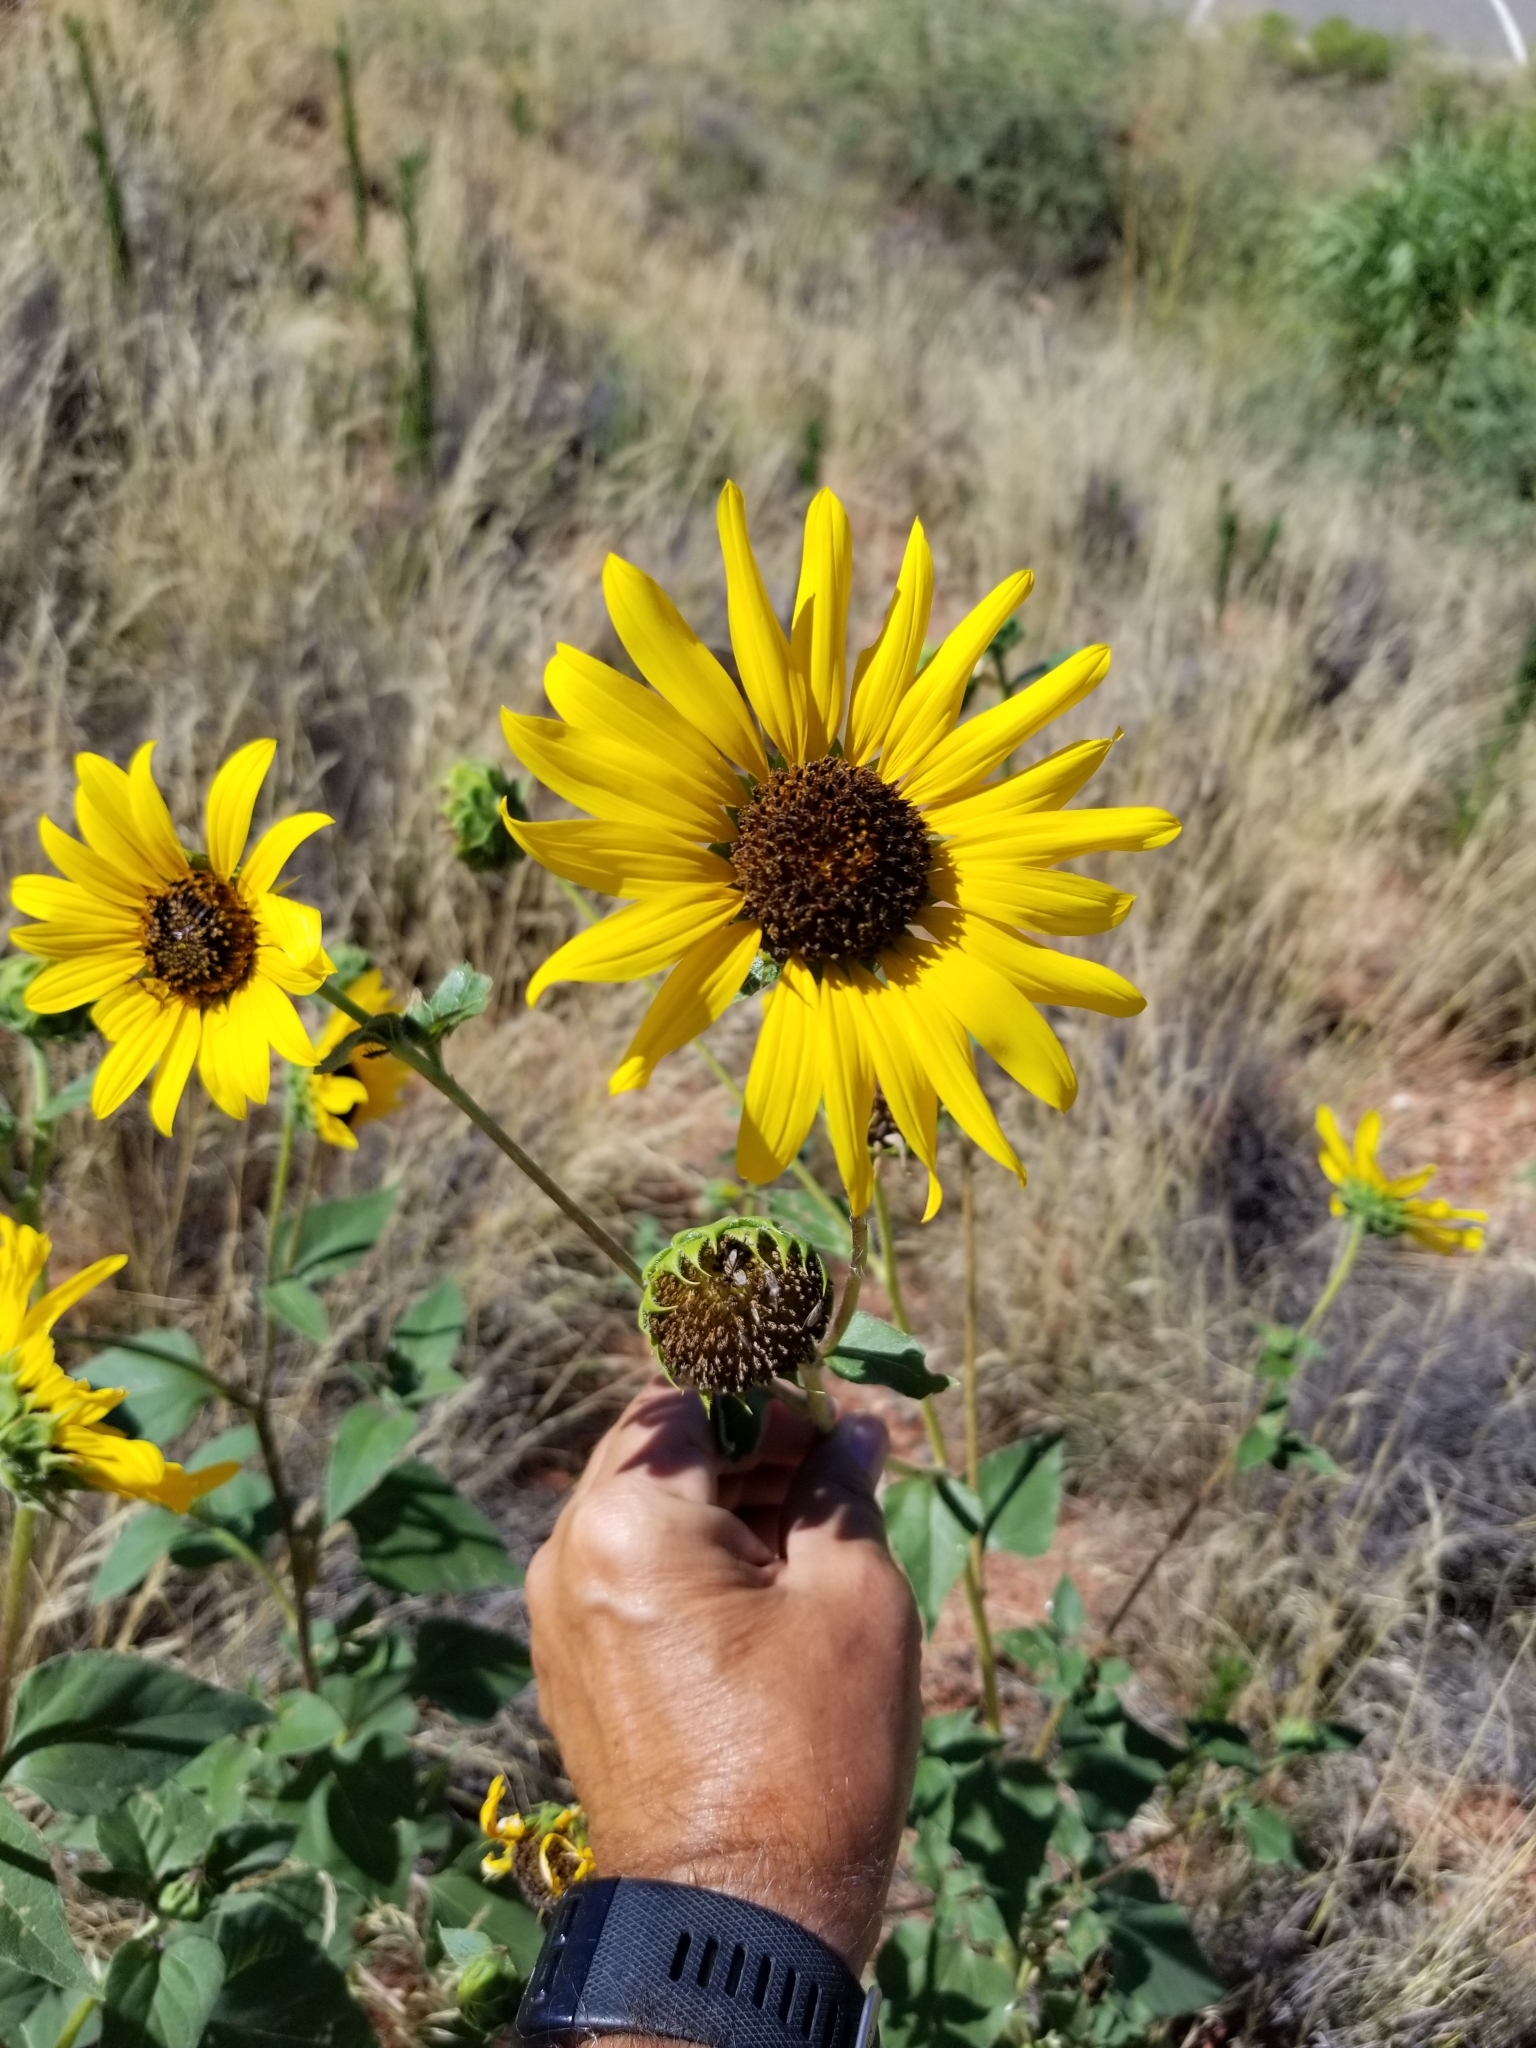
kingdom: Plantae
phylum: Tracheophyta
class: Magnoliopsida
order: Asterales
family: Asteraceae
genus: Helianthus
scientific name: Helianthus annuus
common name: Sunflower
